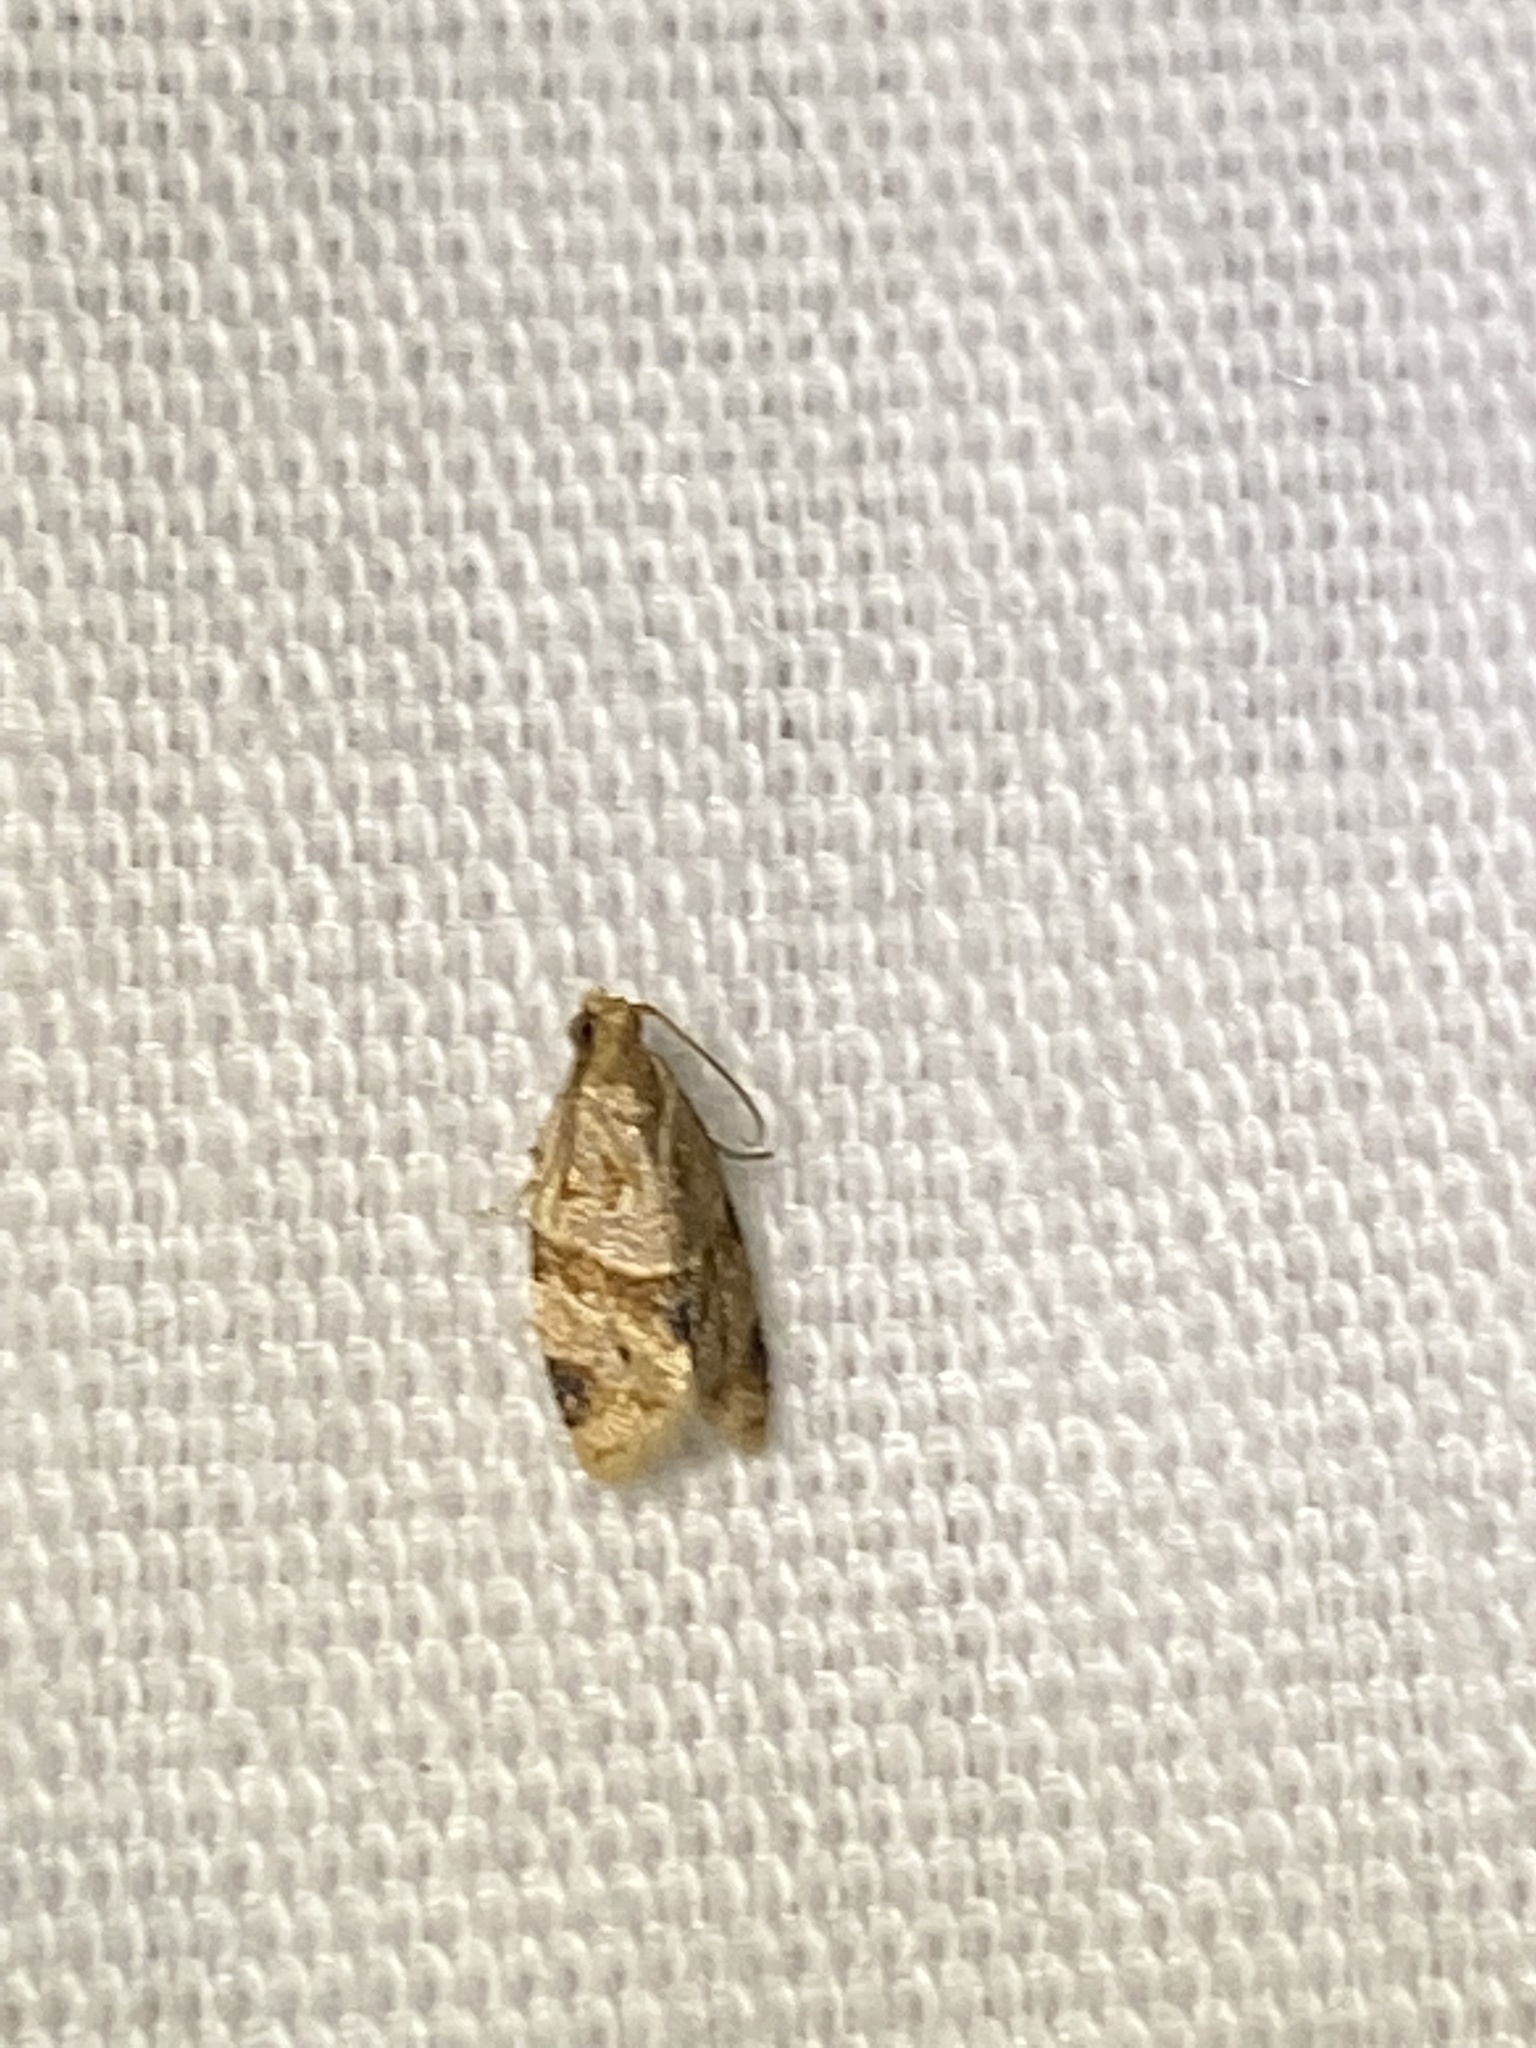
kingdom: Animalia
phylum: Arthropoda
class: Insecta
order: Lepidoptera
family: Tortricidae
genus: Clepsis
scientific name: Clepsis peritana
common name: Garden tortrix
